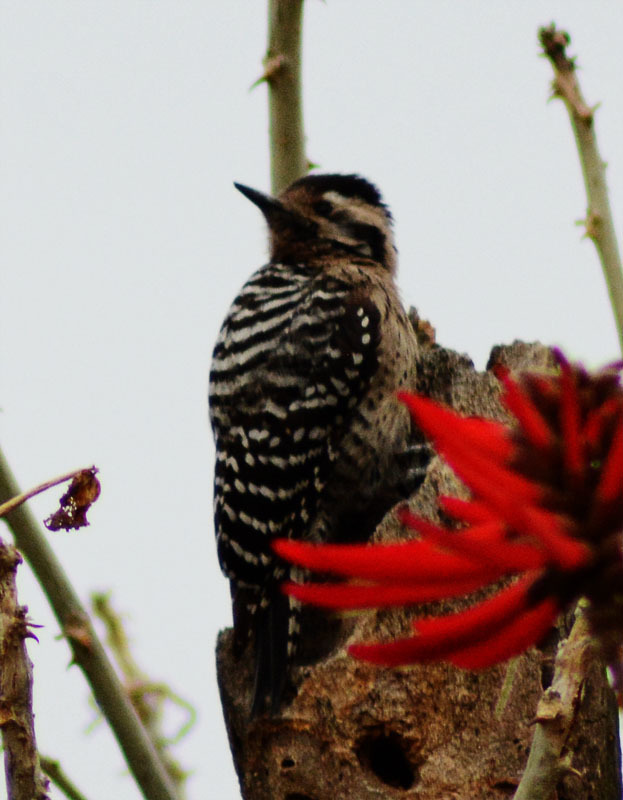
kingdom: Animalia
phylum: Chordata
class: Aves
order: Piciformes
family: Picidae
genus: Dryobates
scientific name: Dryobates scalaris
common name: Ladder-backed woodpecker
